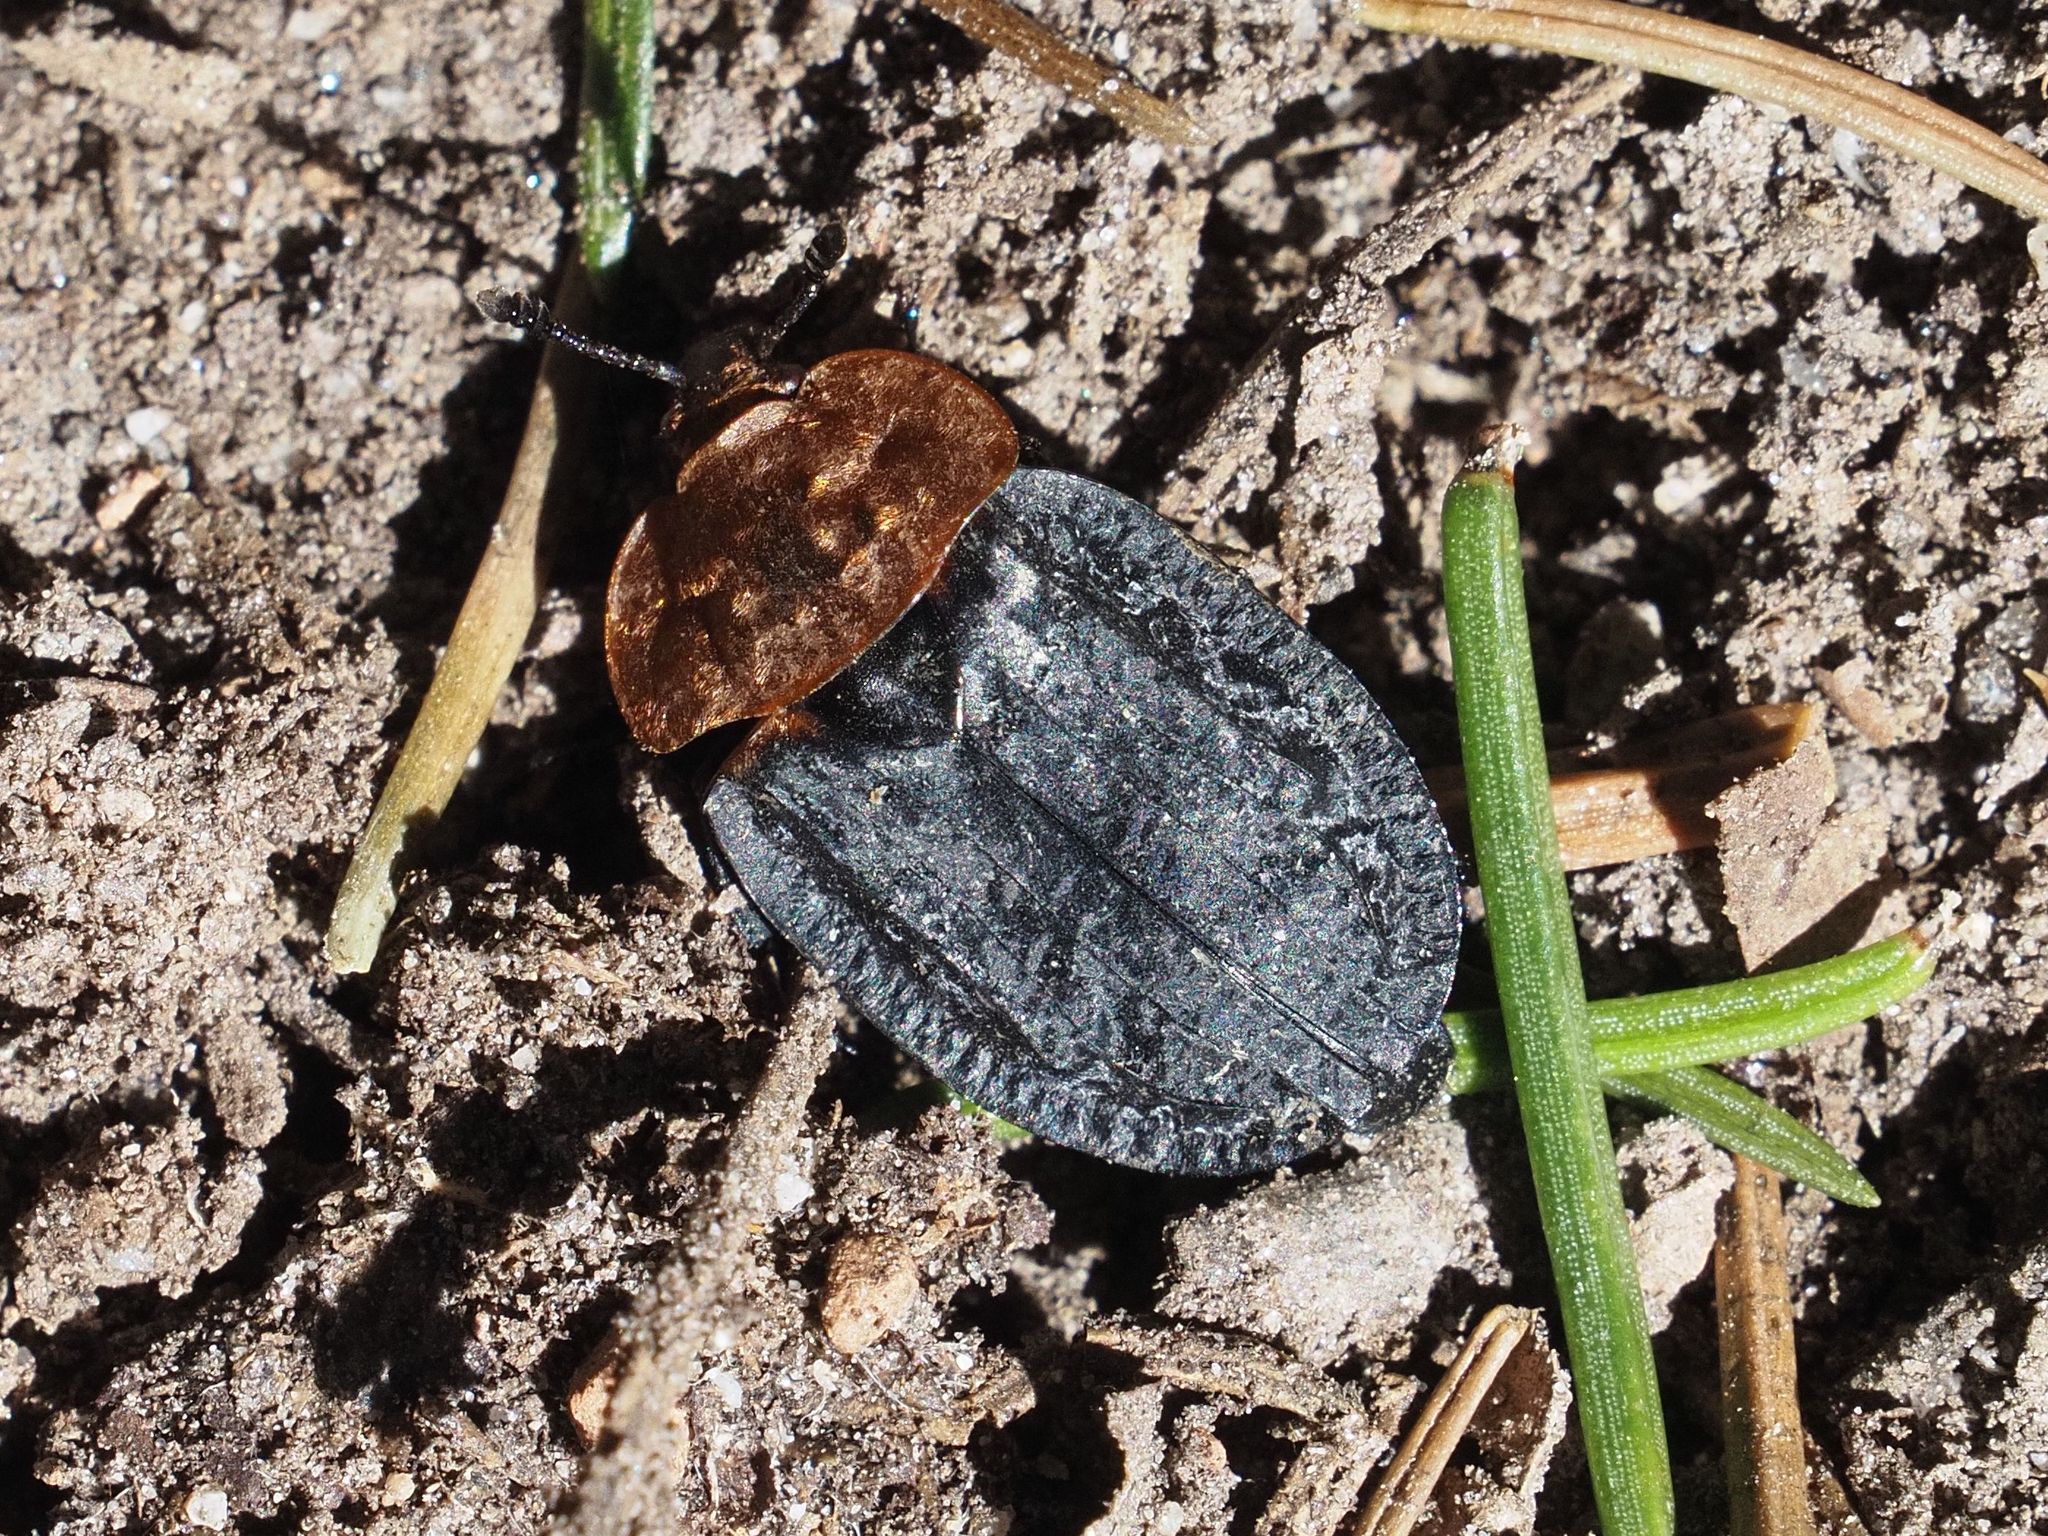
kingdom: Animalia
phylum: Arthropoda
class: Insecta
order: Coleoptera
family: Staphylinidae
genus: Oiceoptoma
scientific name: Oiceoptoma thoracicum
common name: Red-breasted carrion beetle
